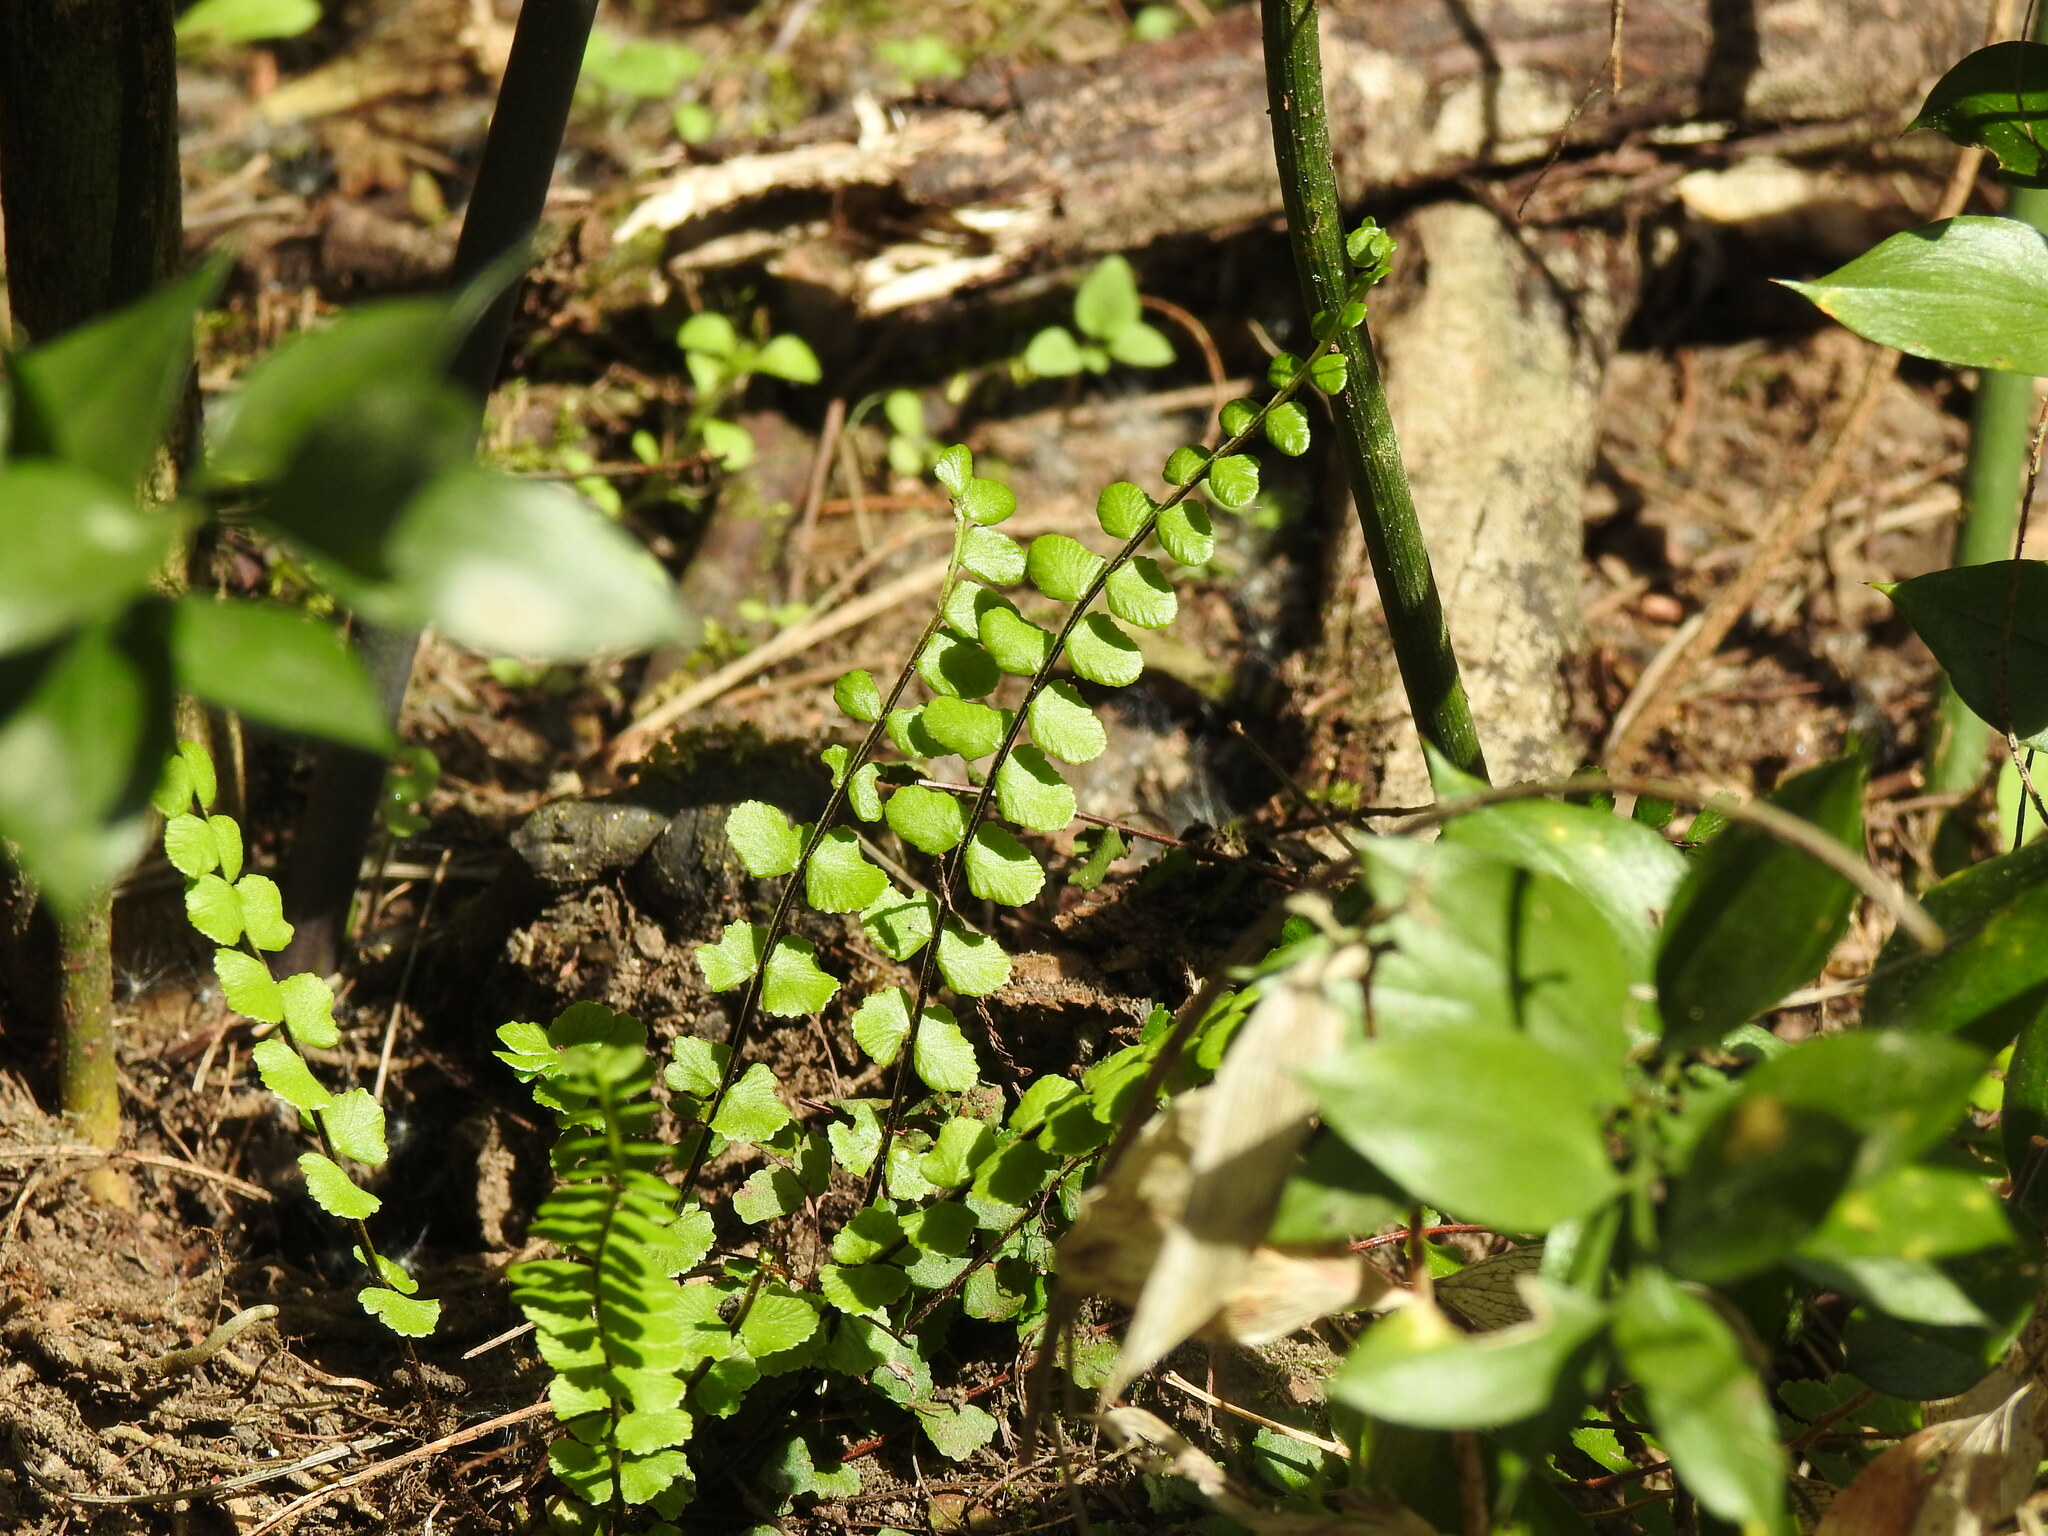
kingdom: Plantae
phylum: Tracheophyta
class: Polypodiopsida
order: Polypodiales
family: Aspleniaceae
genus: Asplenium
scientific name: Asplenium trichomanes
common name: Maidenhair spleenwort
